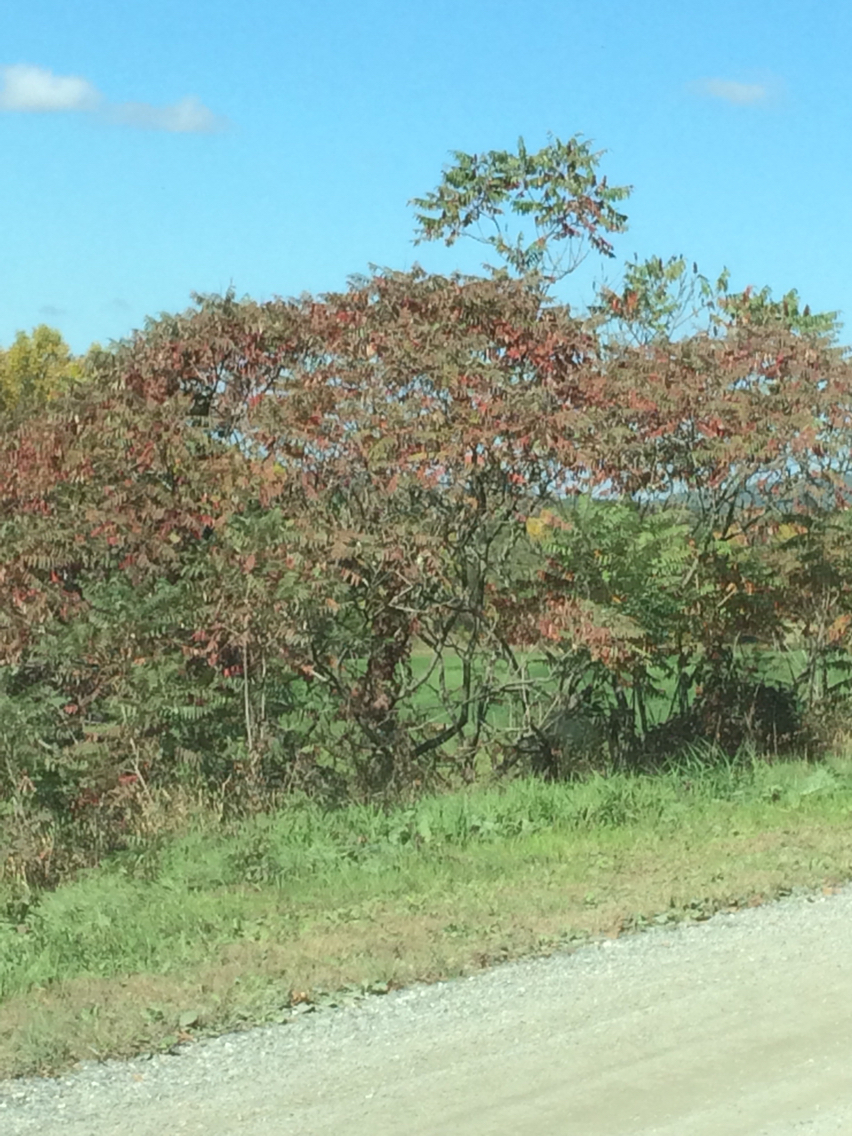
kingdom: Plantae
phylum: Tracheophyta
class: Magnoliopsida
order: Sapindales
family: Anacardiaceae
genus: Rhus
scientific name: Rhus typhina
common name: Staghorn sumac
